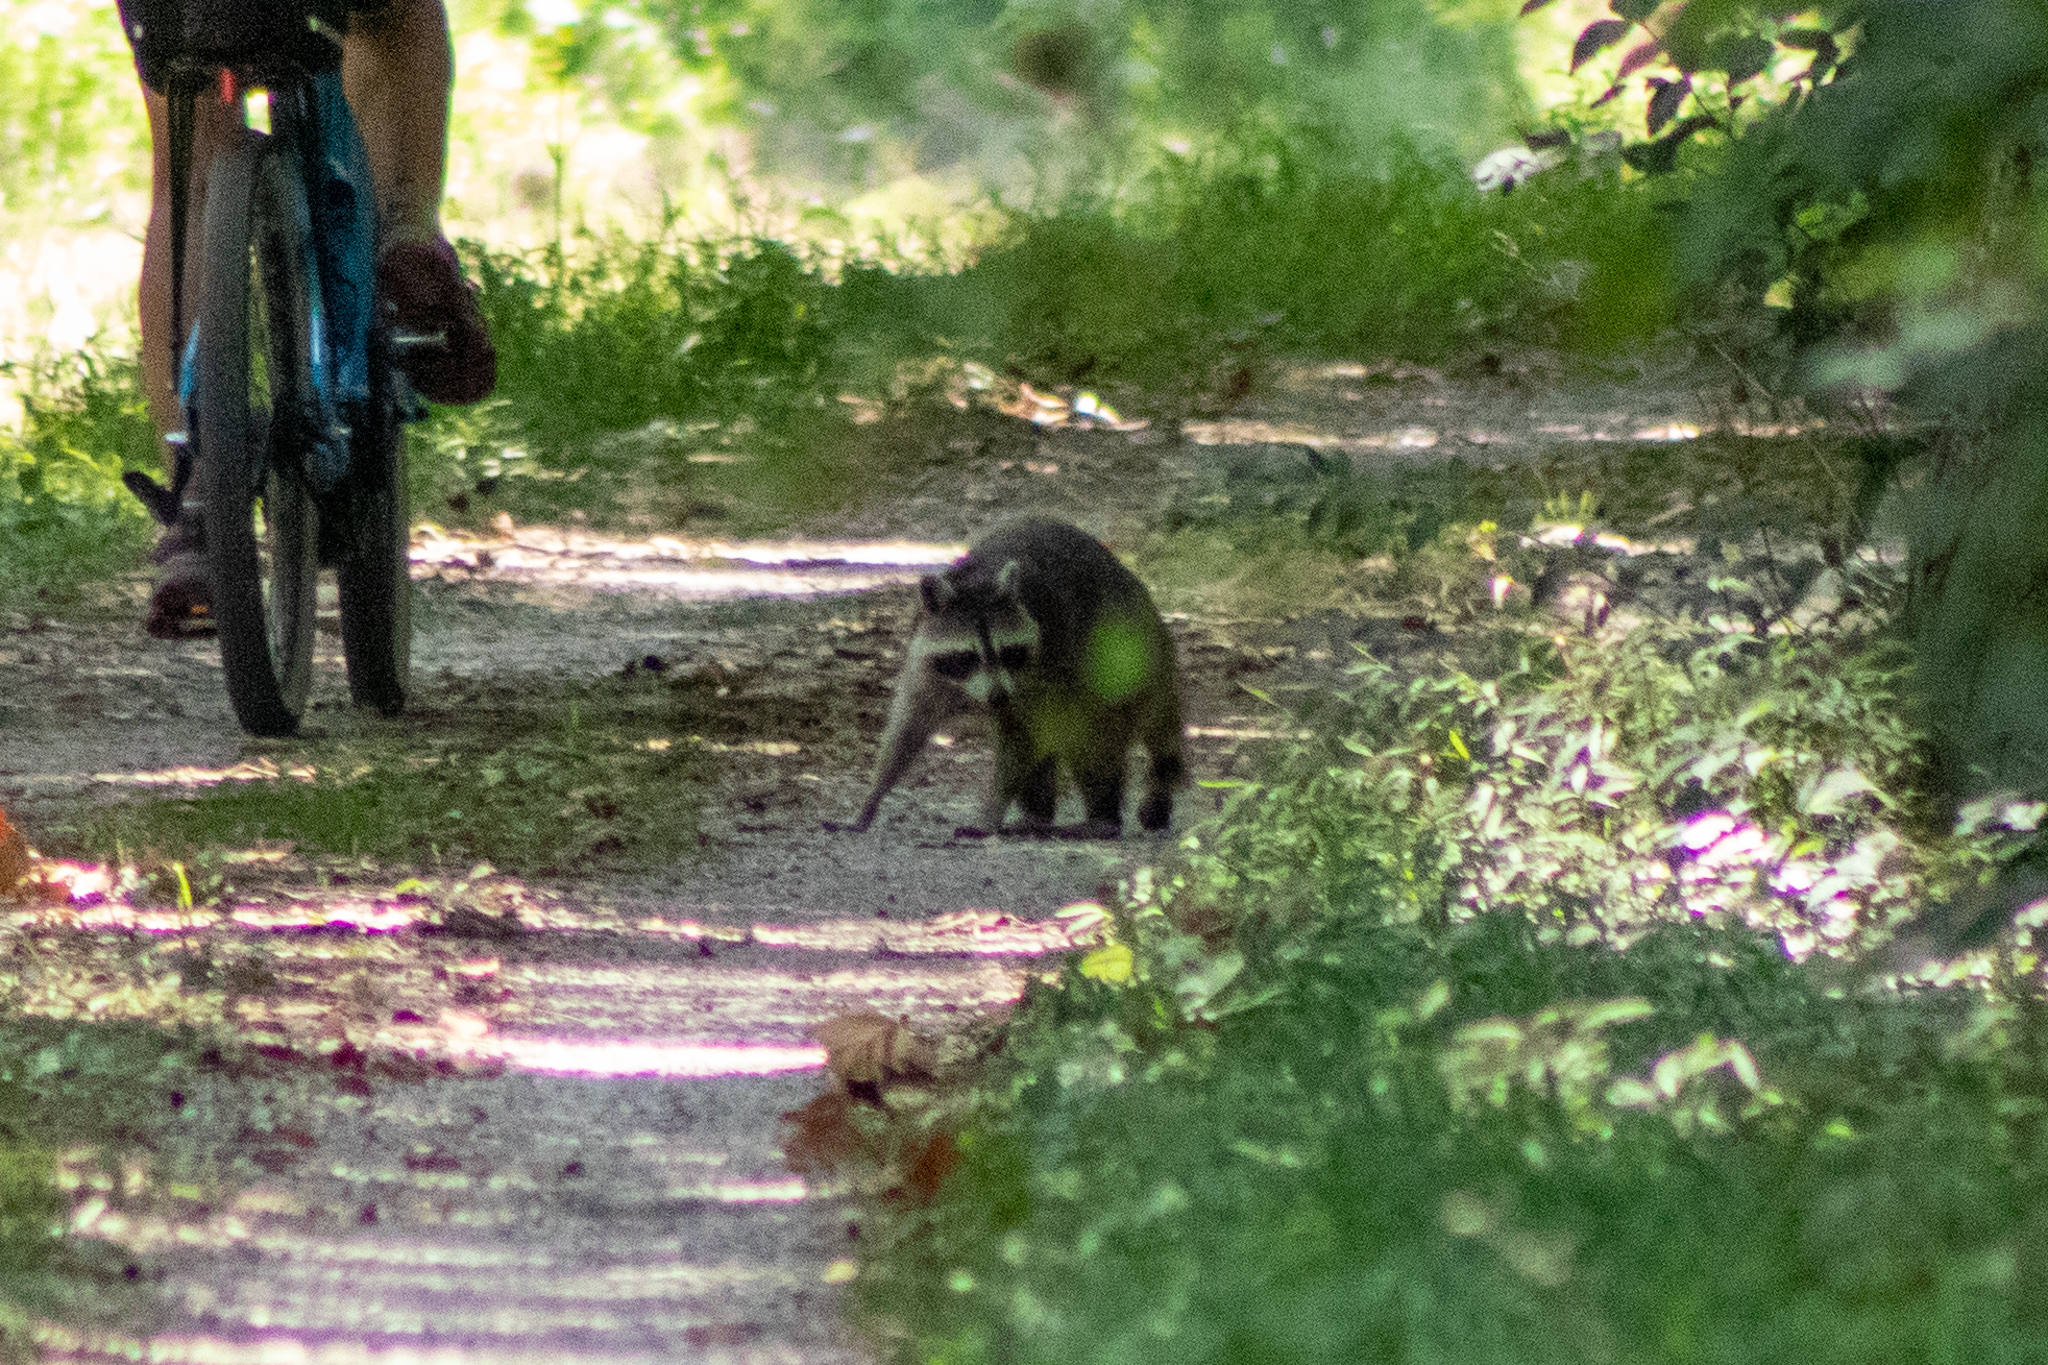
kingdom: Animalia
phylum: Chordata
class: Mammalia
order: Carnivora
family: Procyonidae
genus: Procyon
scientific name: Procyon lotor
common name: Raccoon
